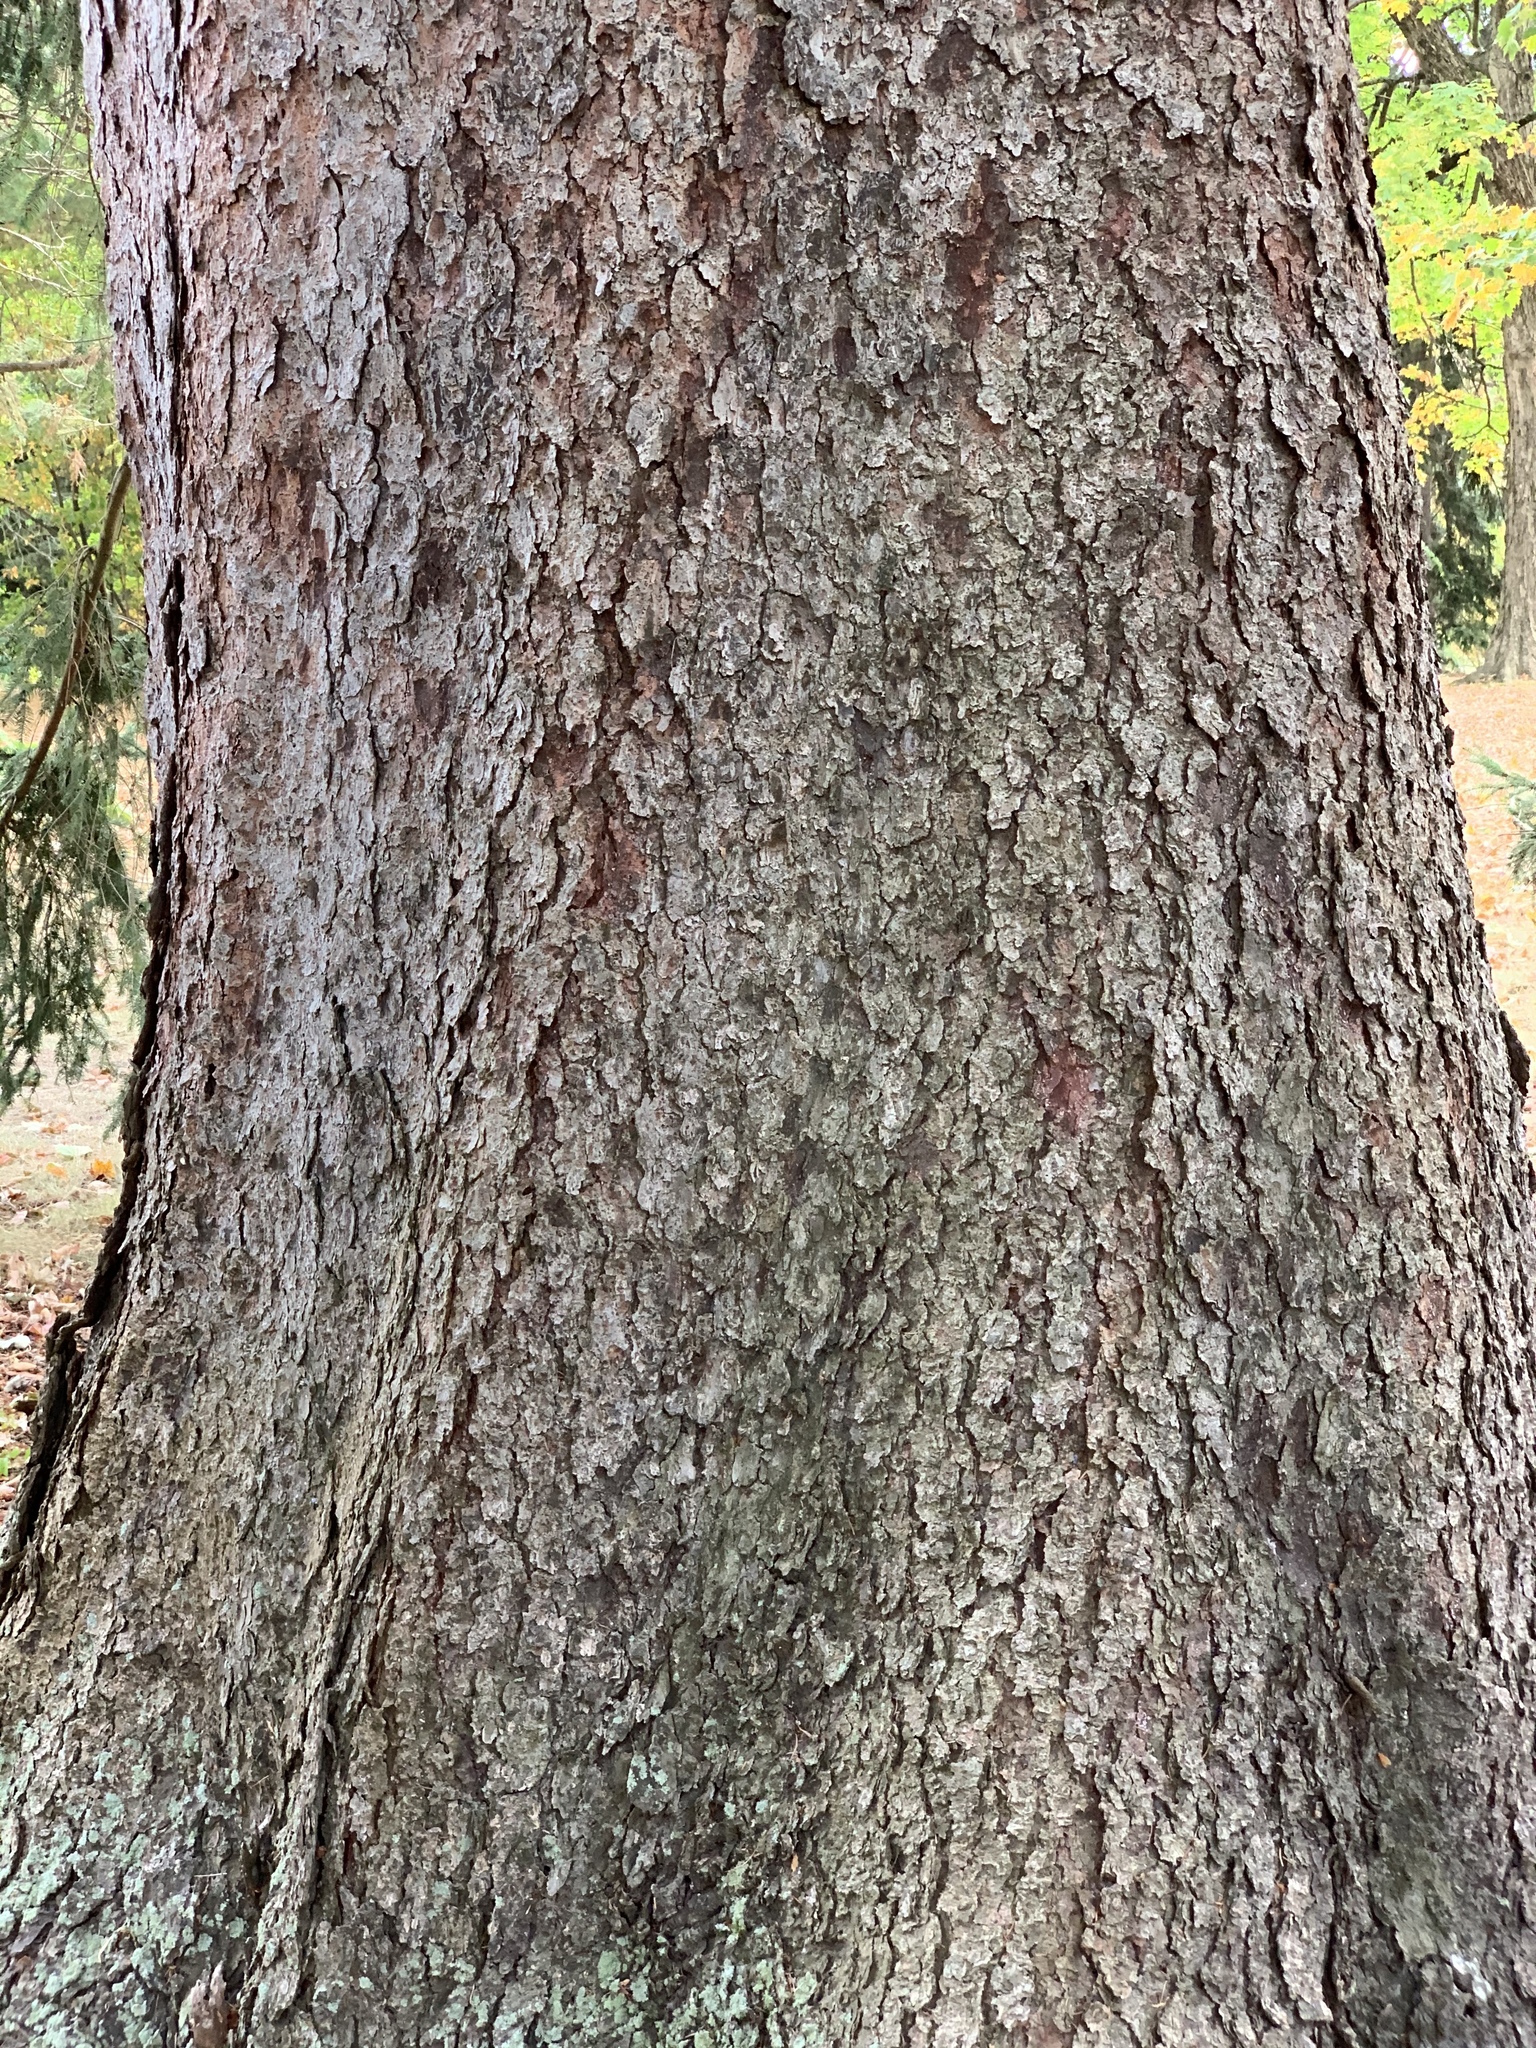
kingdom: Plantae
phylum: Tracheophyta
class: Pinopsida
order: Pinales
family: Pinaceae
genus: Picea
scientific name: Picea abies
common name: Norway spruce
